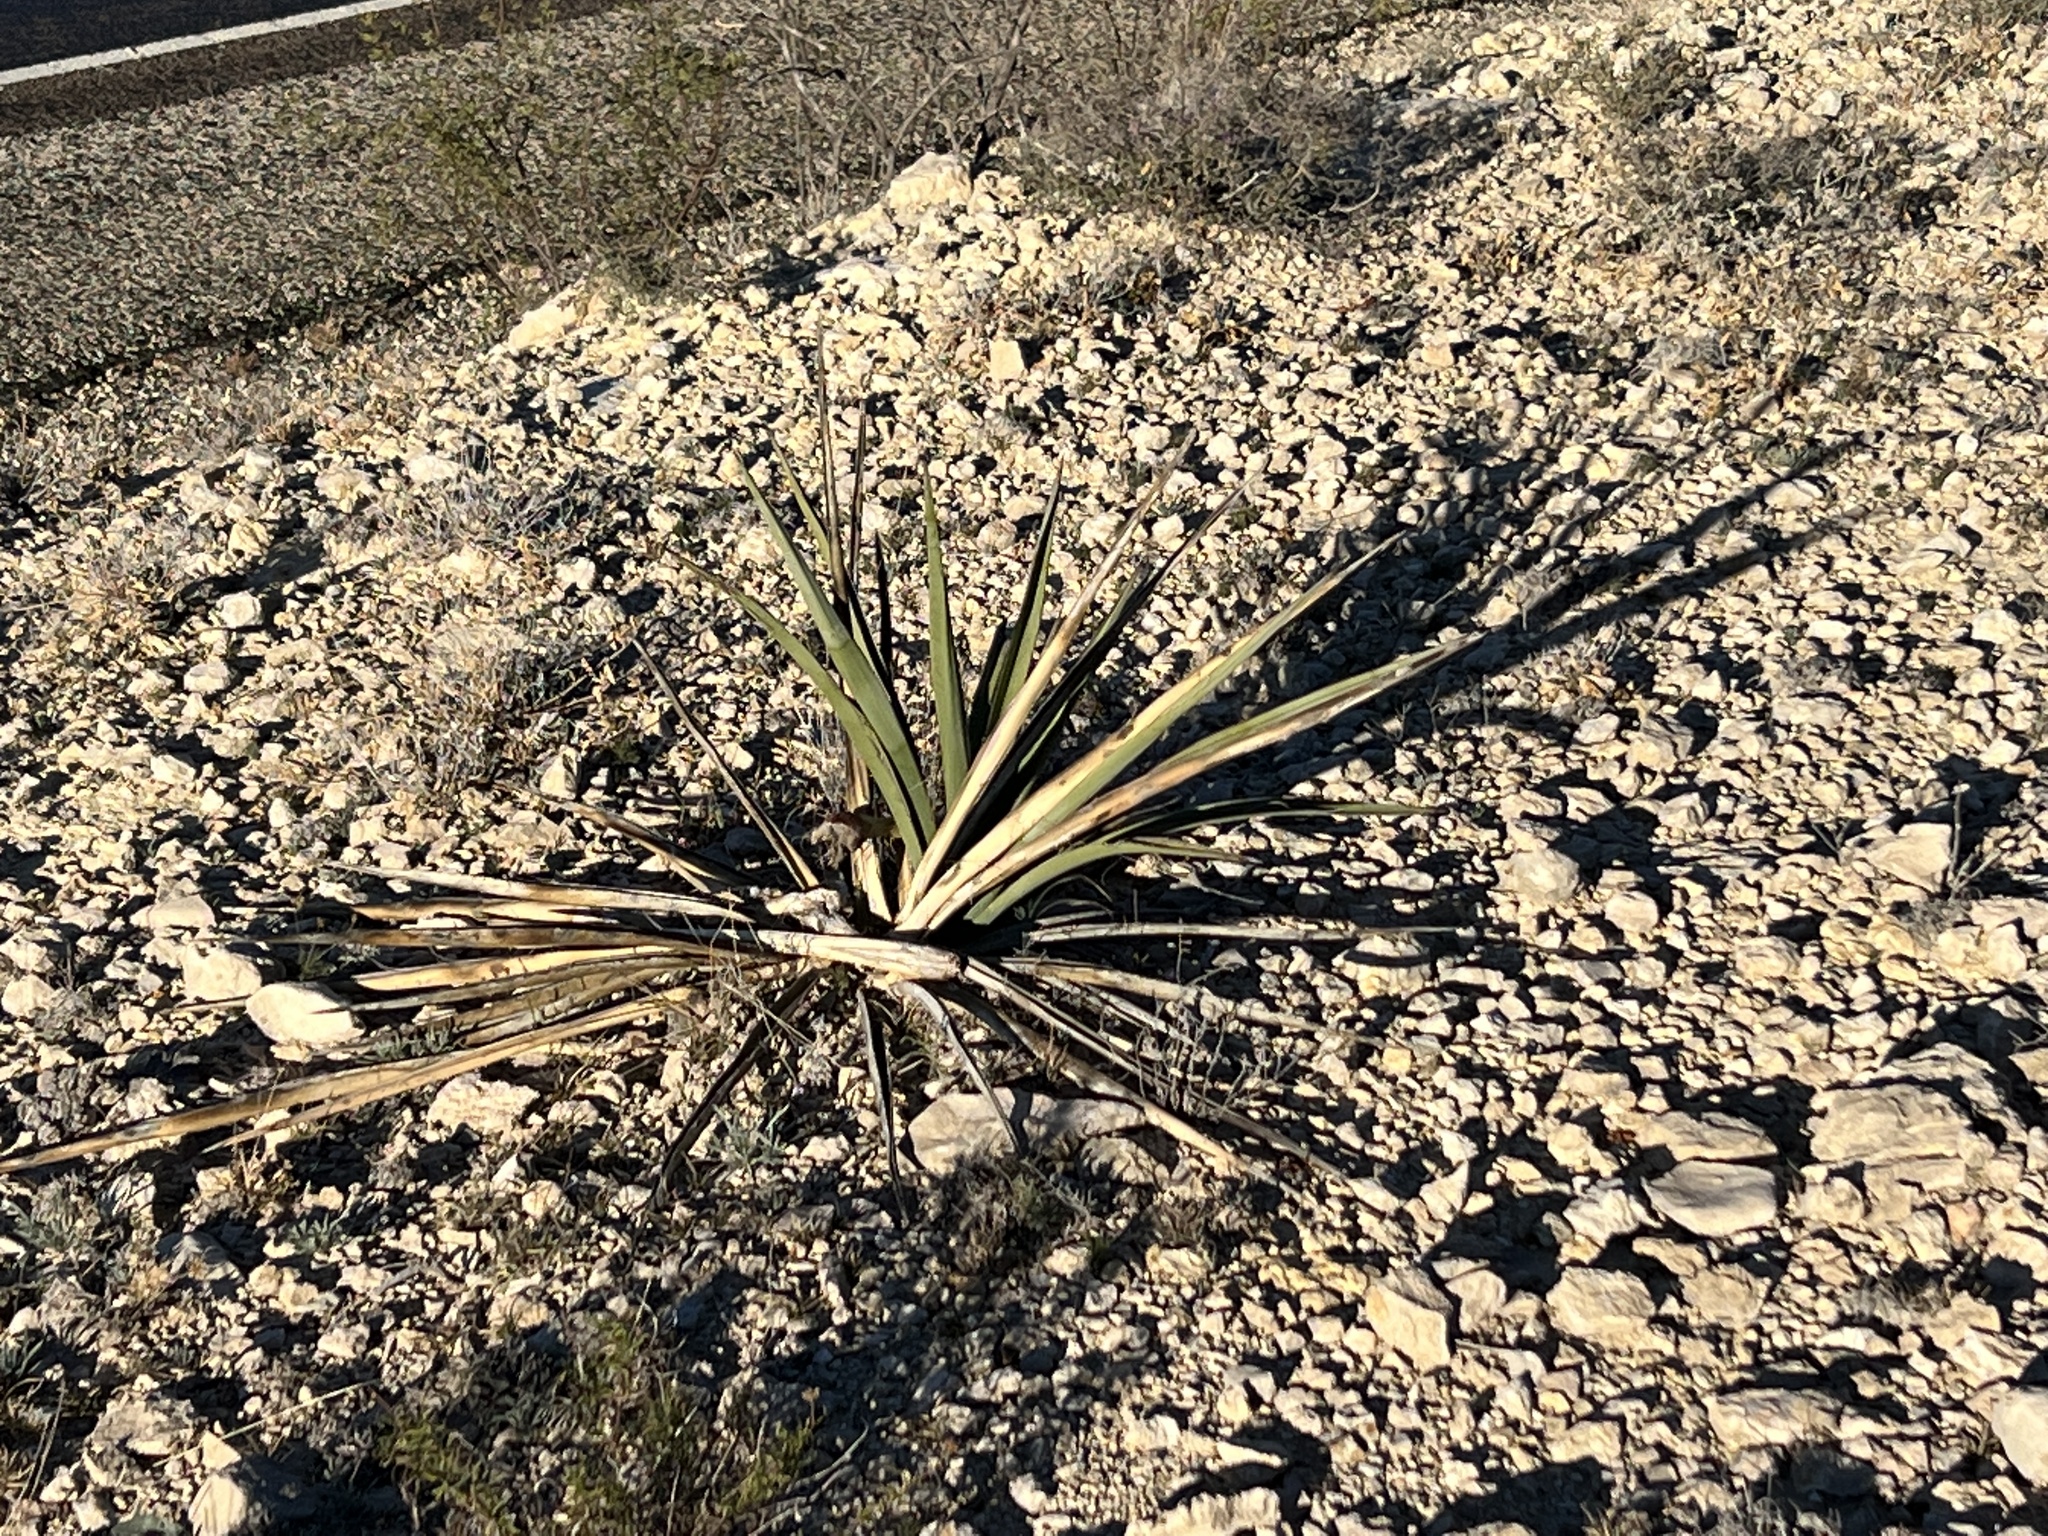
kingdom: Plantae
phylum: Tracheophyta
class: Liliopsida
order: Asparagales
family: Asparagaceae
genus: Yucca
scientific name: Yucca treculiana
